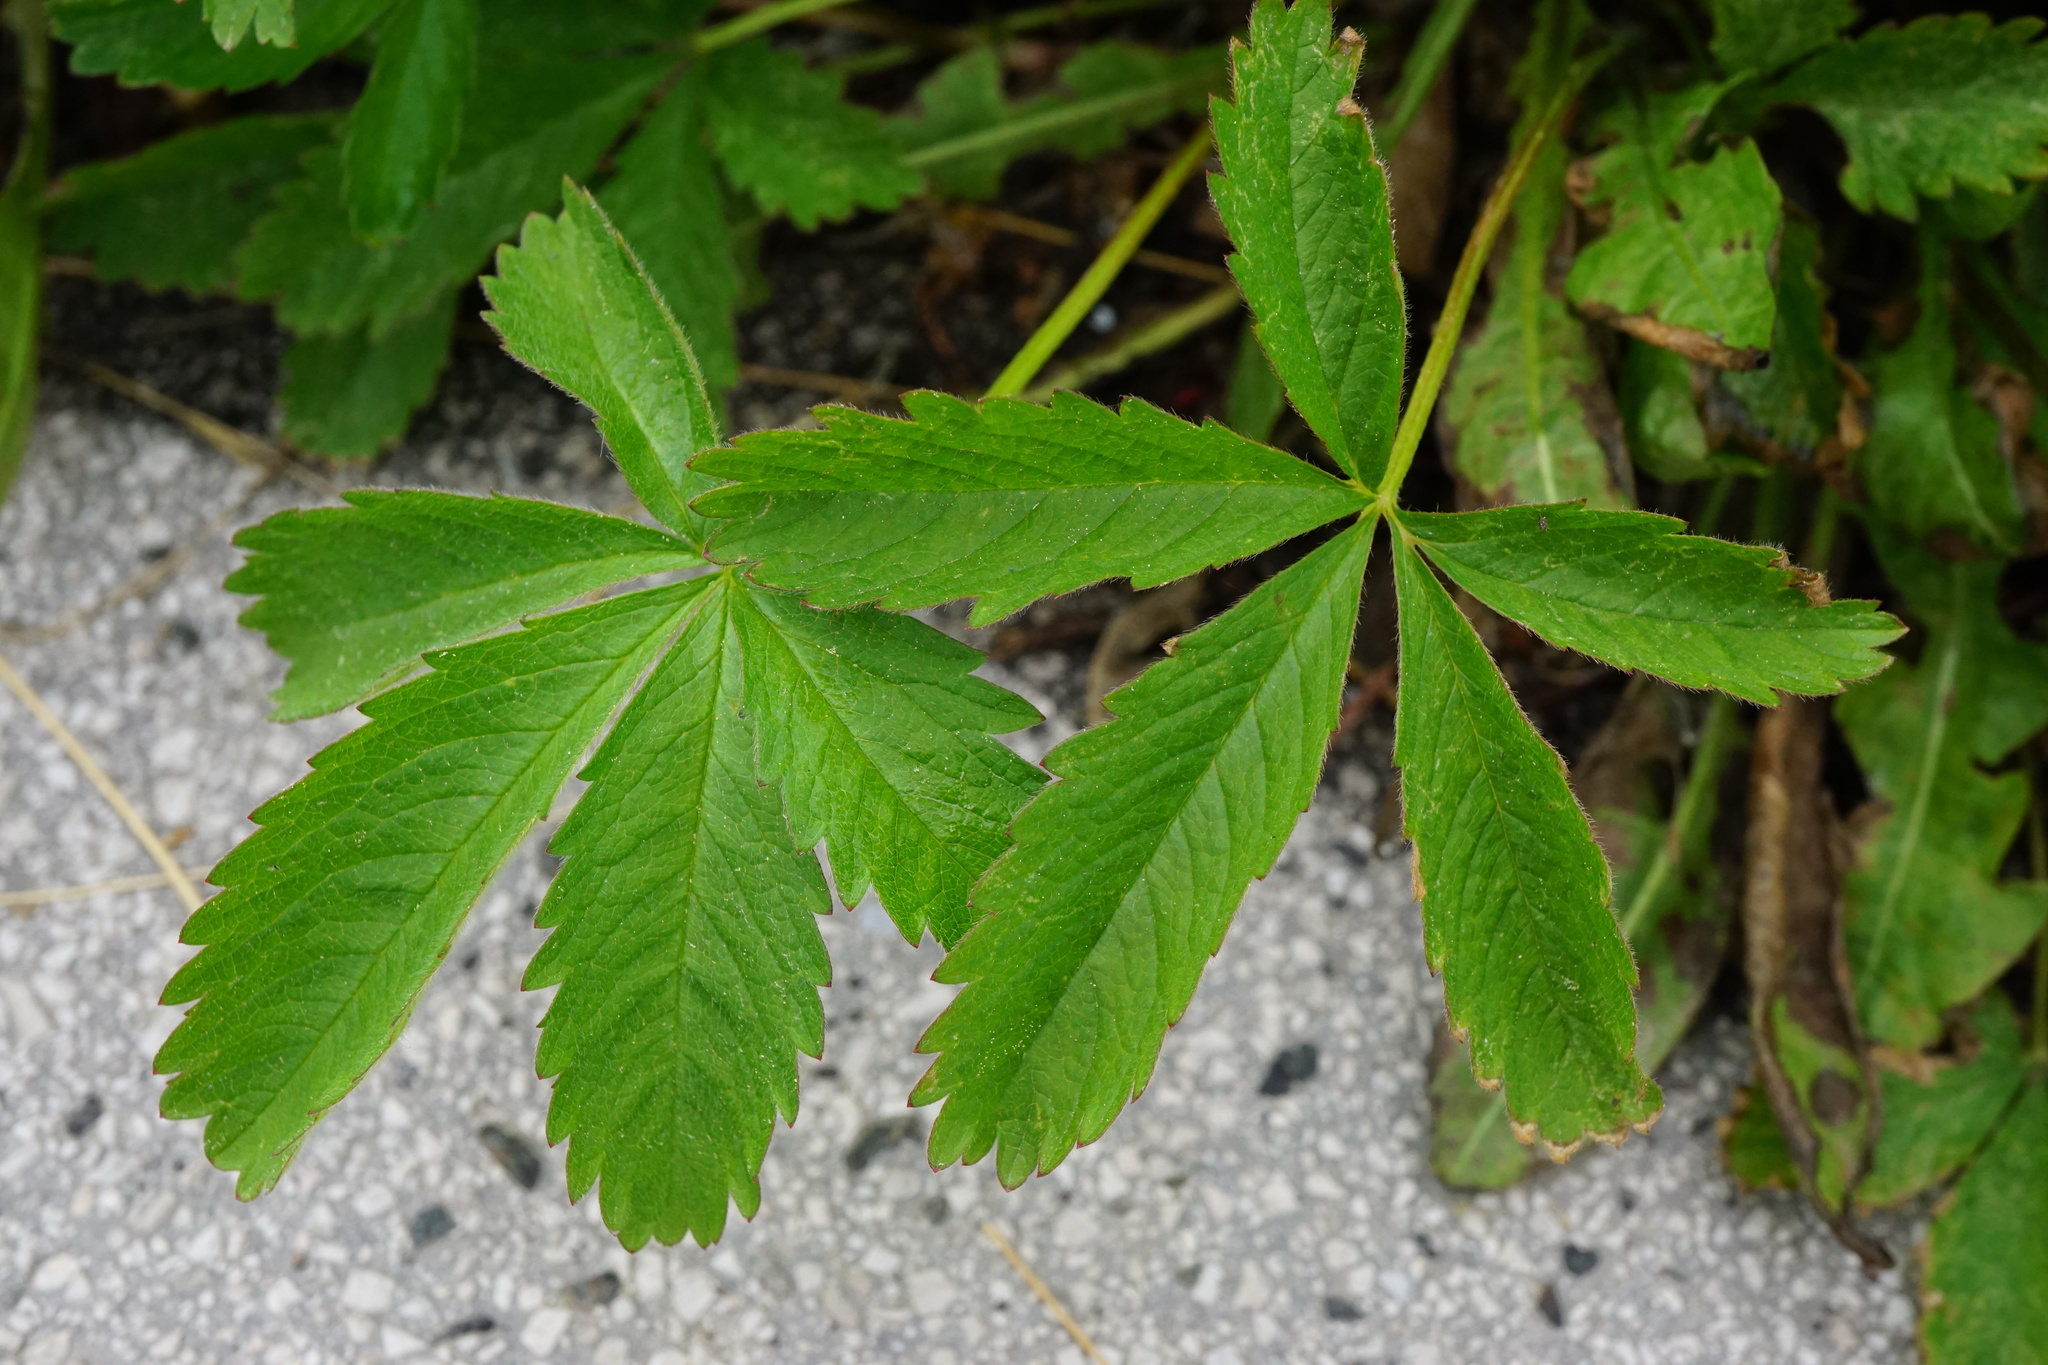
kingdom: Plantae
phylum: Tracheophyta
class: Magnoliopsida
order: Rosales
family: Rosaceae
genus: Potentilla
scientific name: Potentilla reptans
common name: Creeping cinquefoil
